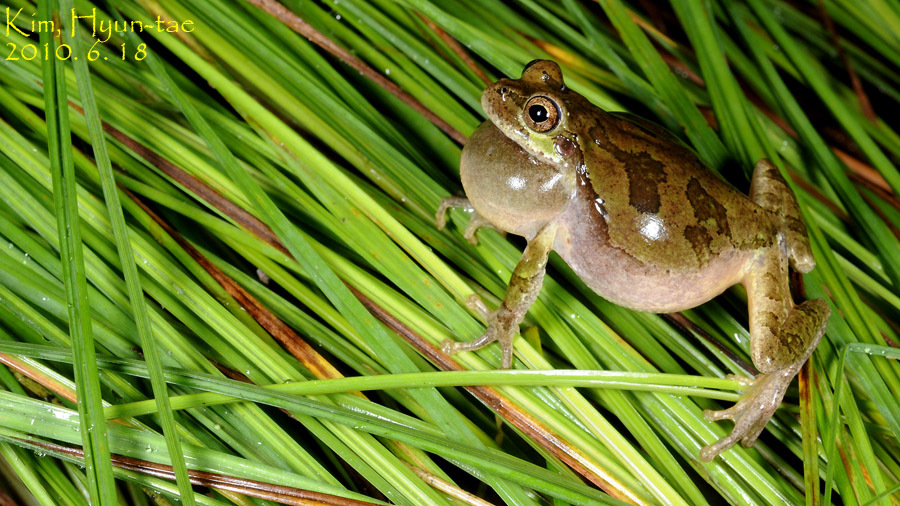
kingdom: Animalia
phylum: Chordata
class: Amphibia
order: Anura
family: Hylidae
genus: Dryophytes
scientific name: Dryophytes japonicus
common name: Japanese treefrog
